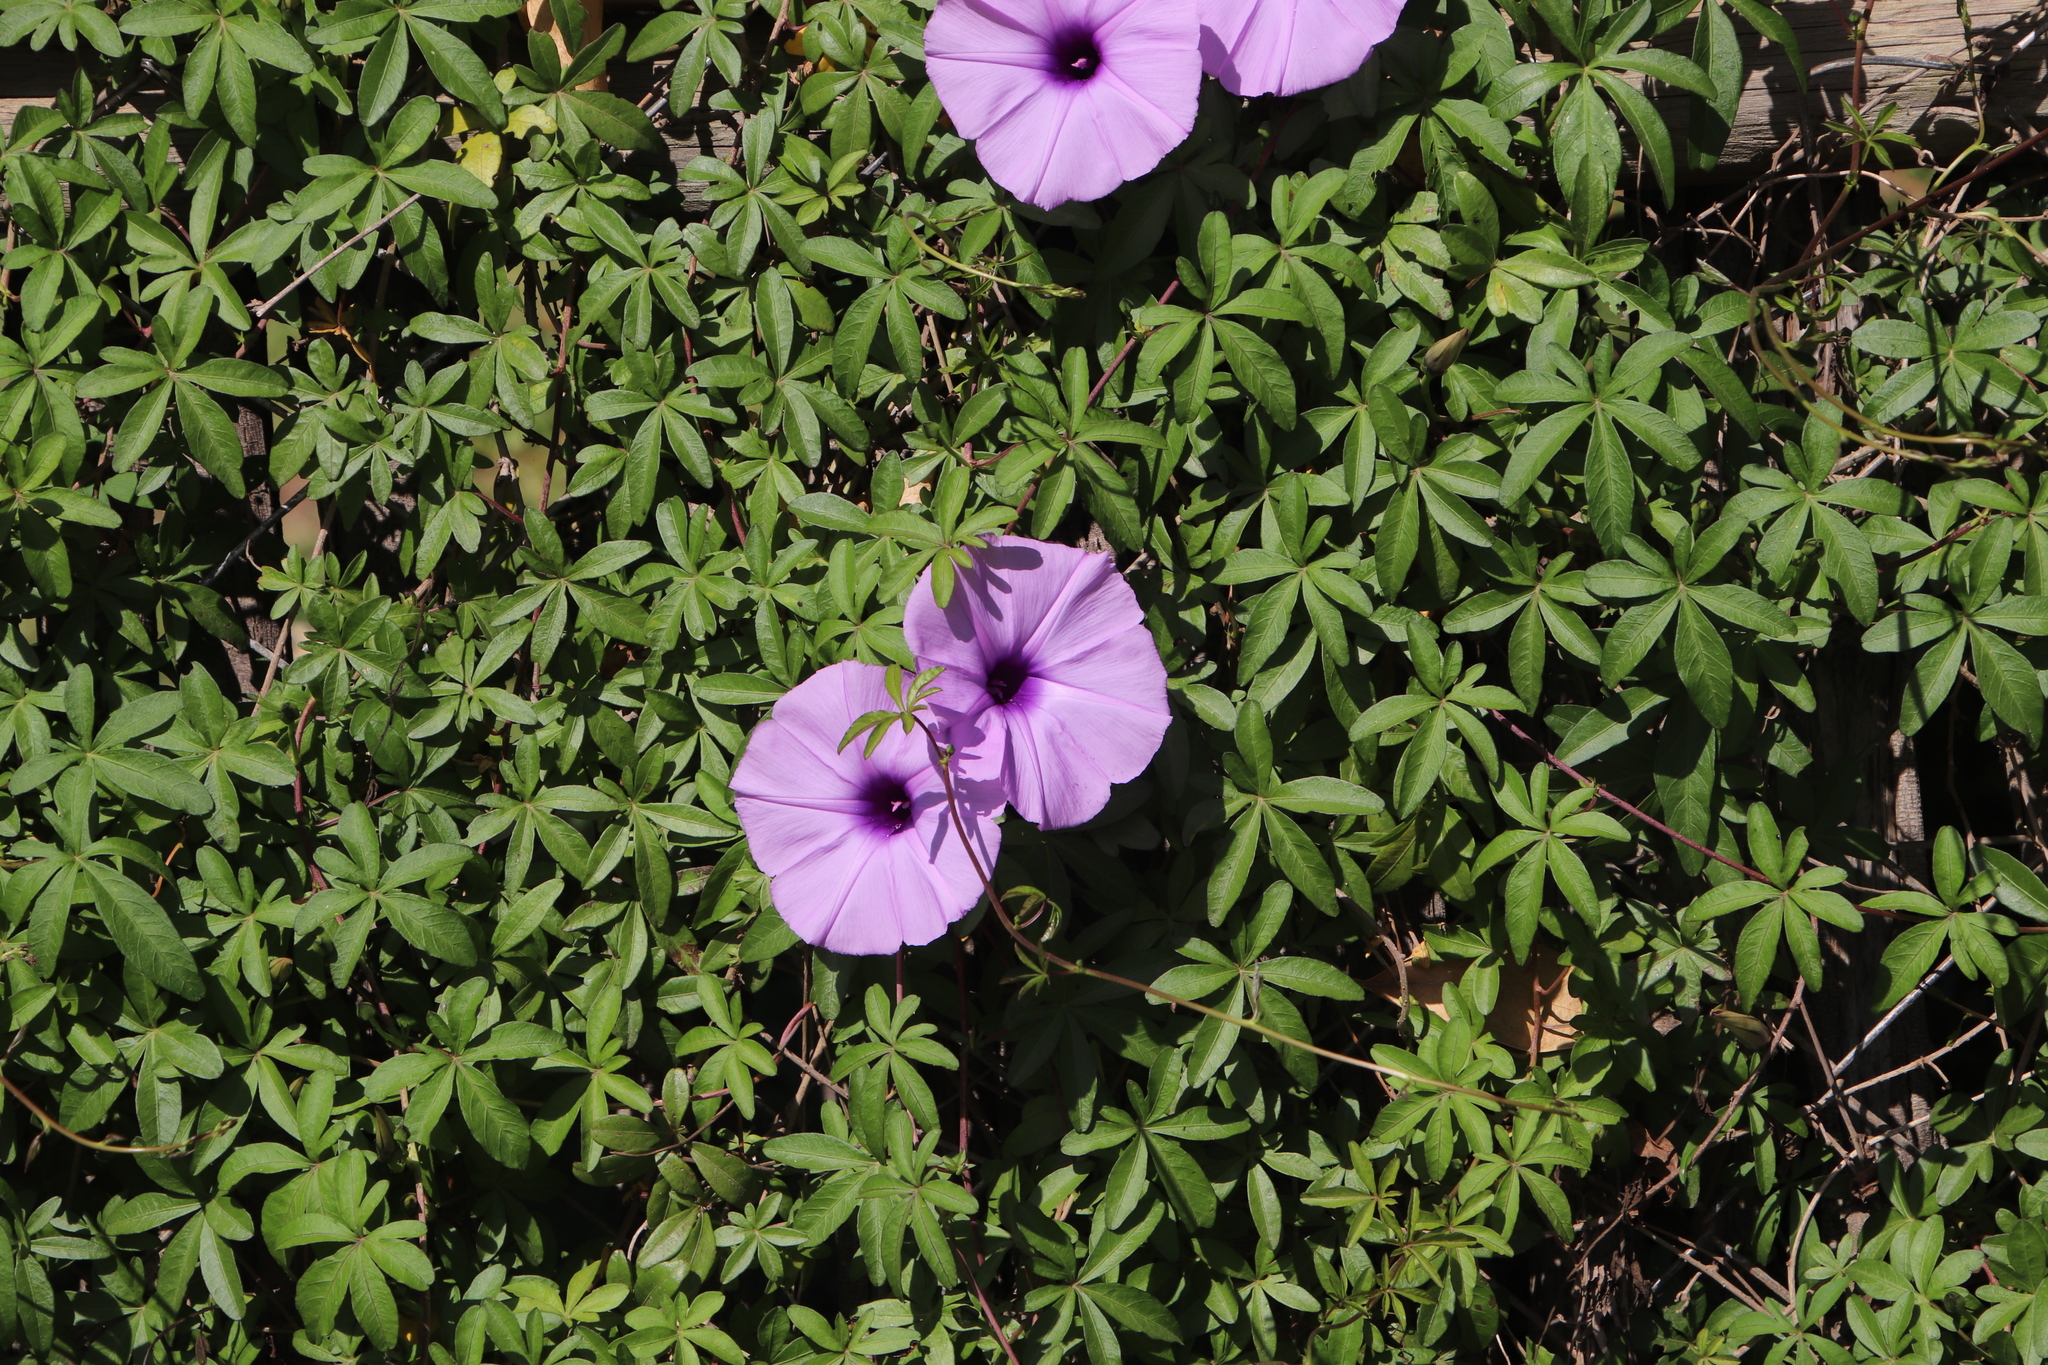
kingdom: Plantae
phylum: Tracheophyta
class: Magnoliopsida
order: Solanales
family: Convolvulaceae
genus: Ipomoea
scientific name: Ipomoea cairica
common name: Mile a minute vine
